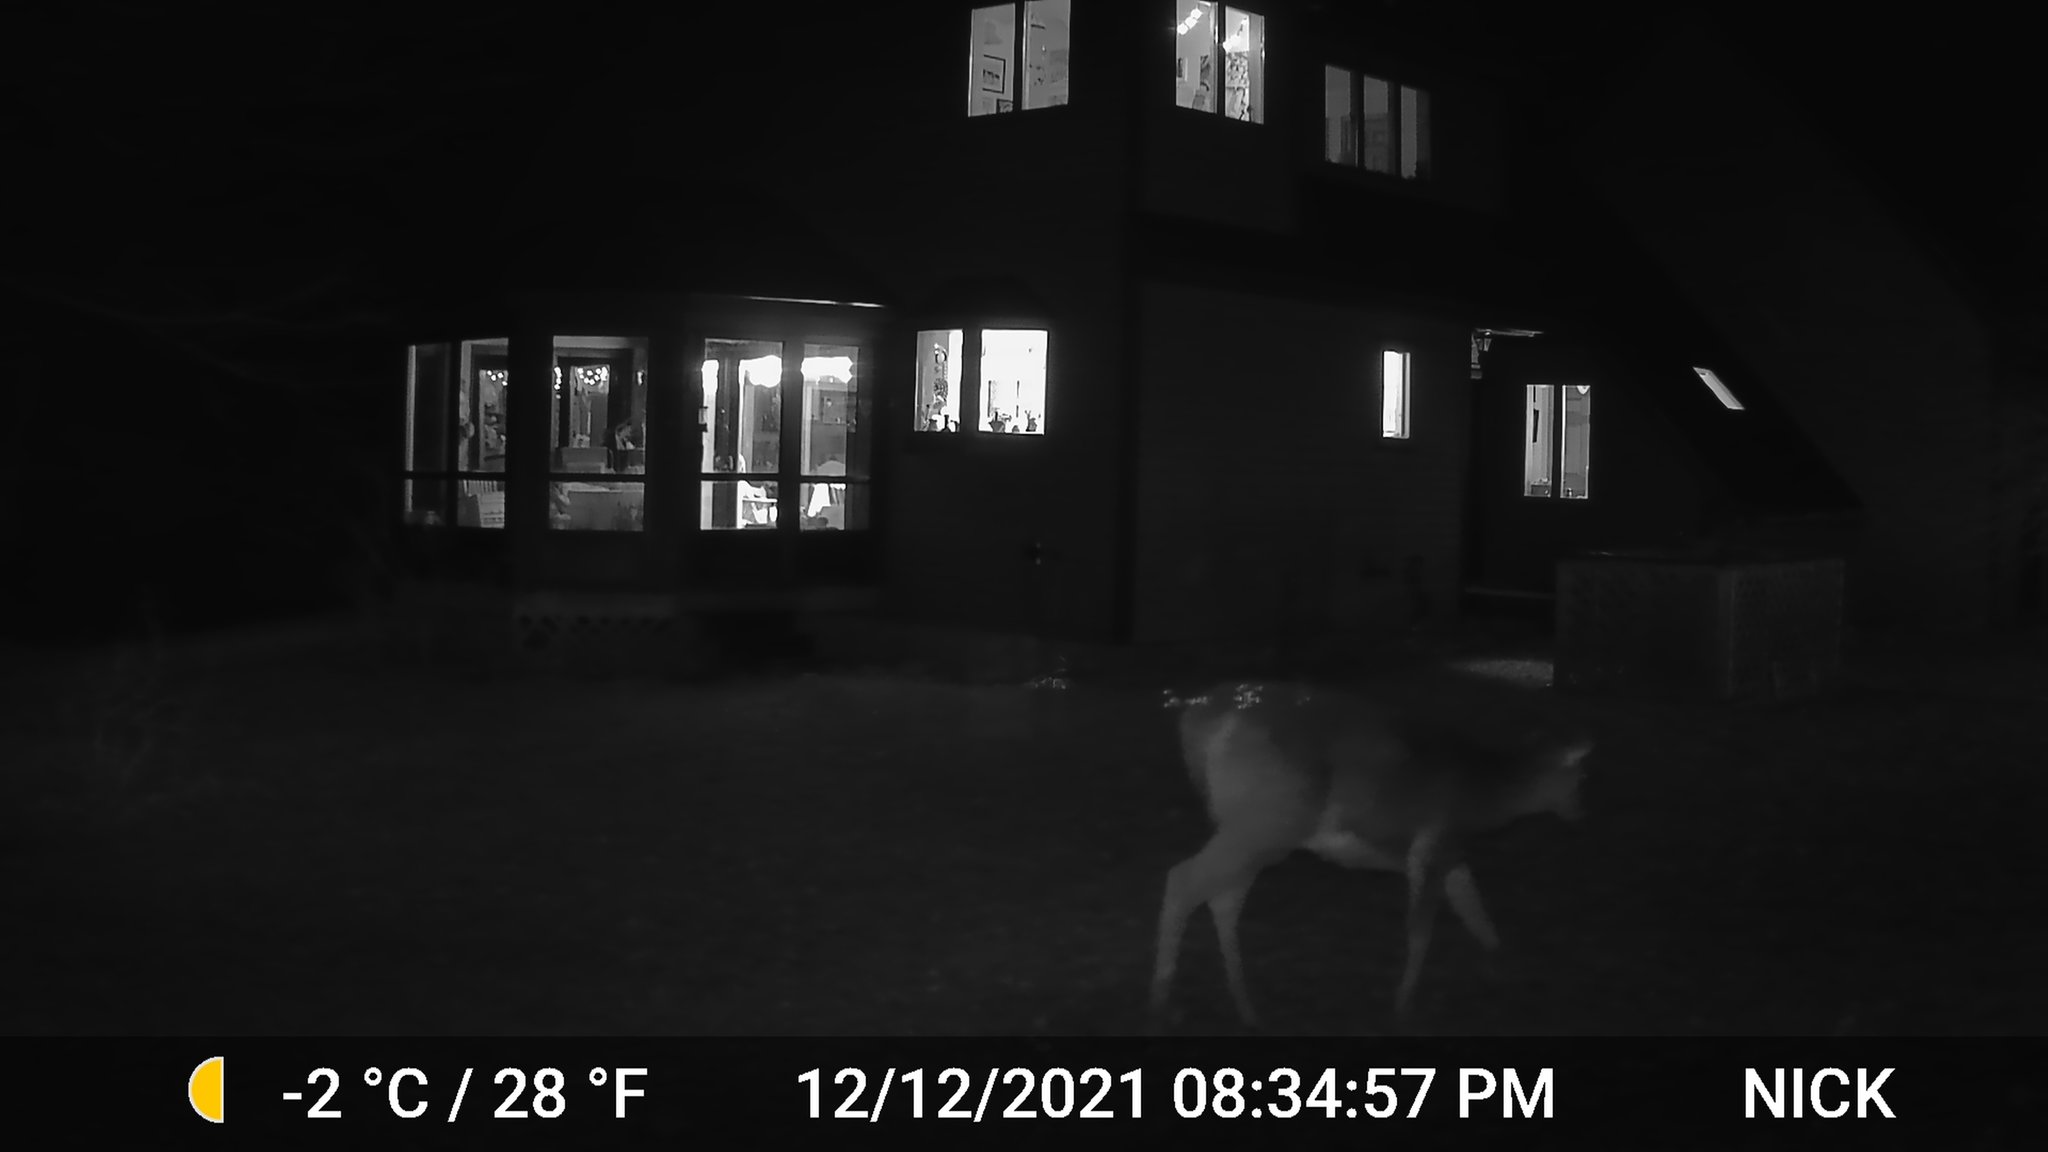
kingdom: Animalia
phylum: Chordata
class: Mammalia
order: Artiodactyla
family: Cervidae
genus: Odocoileus
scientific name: Odocoileus virginianus
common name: White-tailed deer
